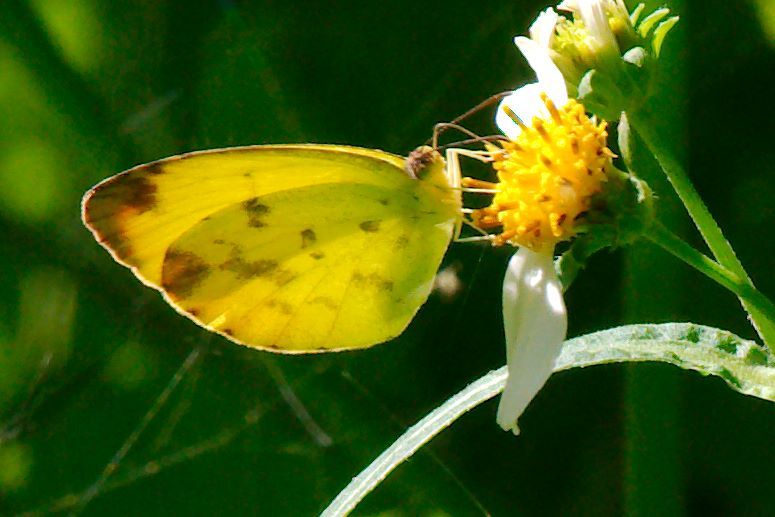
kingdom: Animalia
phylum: Arthropoda
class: Insecta
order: Lepidoptera
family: Pieridae
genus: Pyrisitia
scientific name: Pyrisitia dina
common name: Dina yellow
